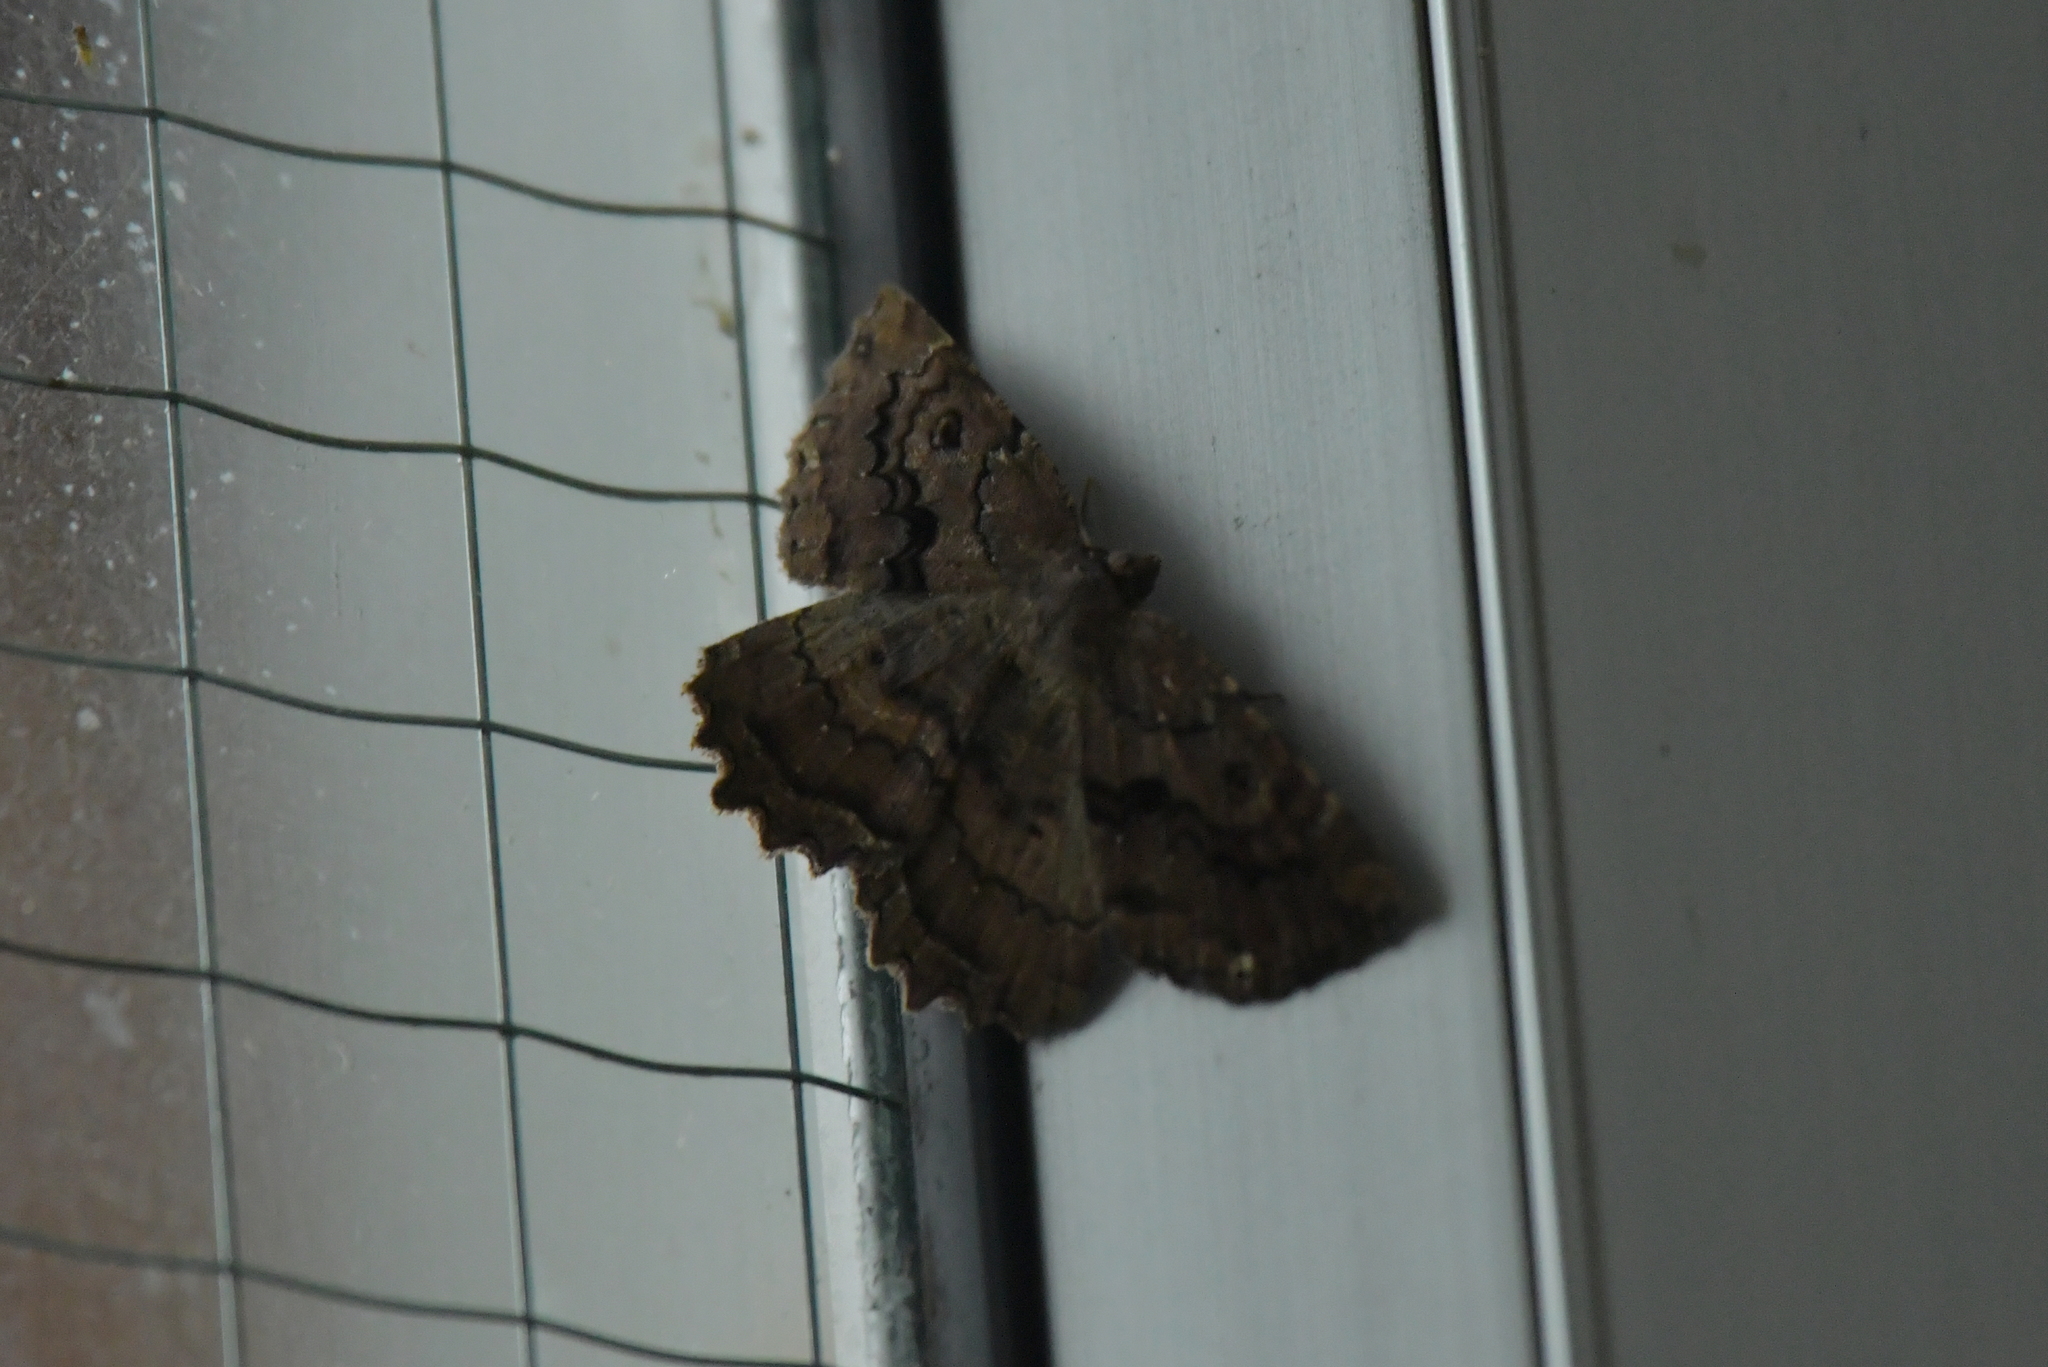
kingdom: Animalia
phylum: Arthropoda
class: Insecta
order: Lepidoptera
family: Geometridae
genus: Gellonia
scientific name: Gellonia pannularia
